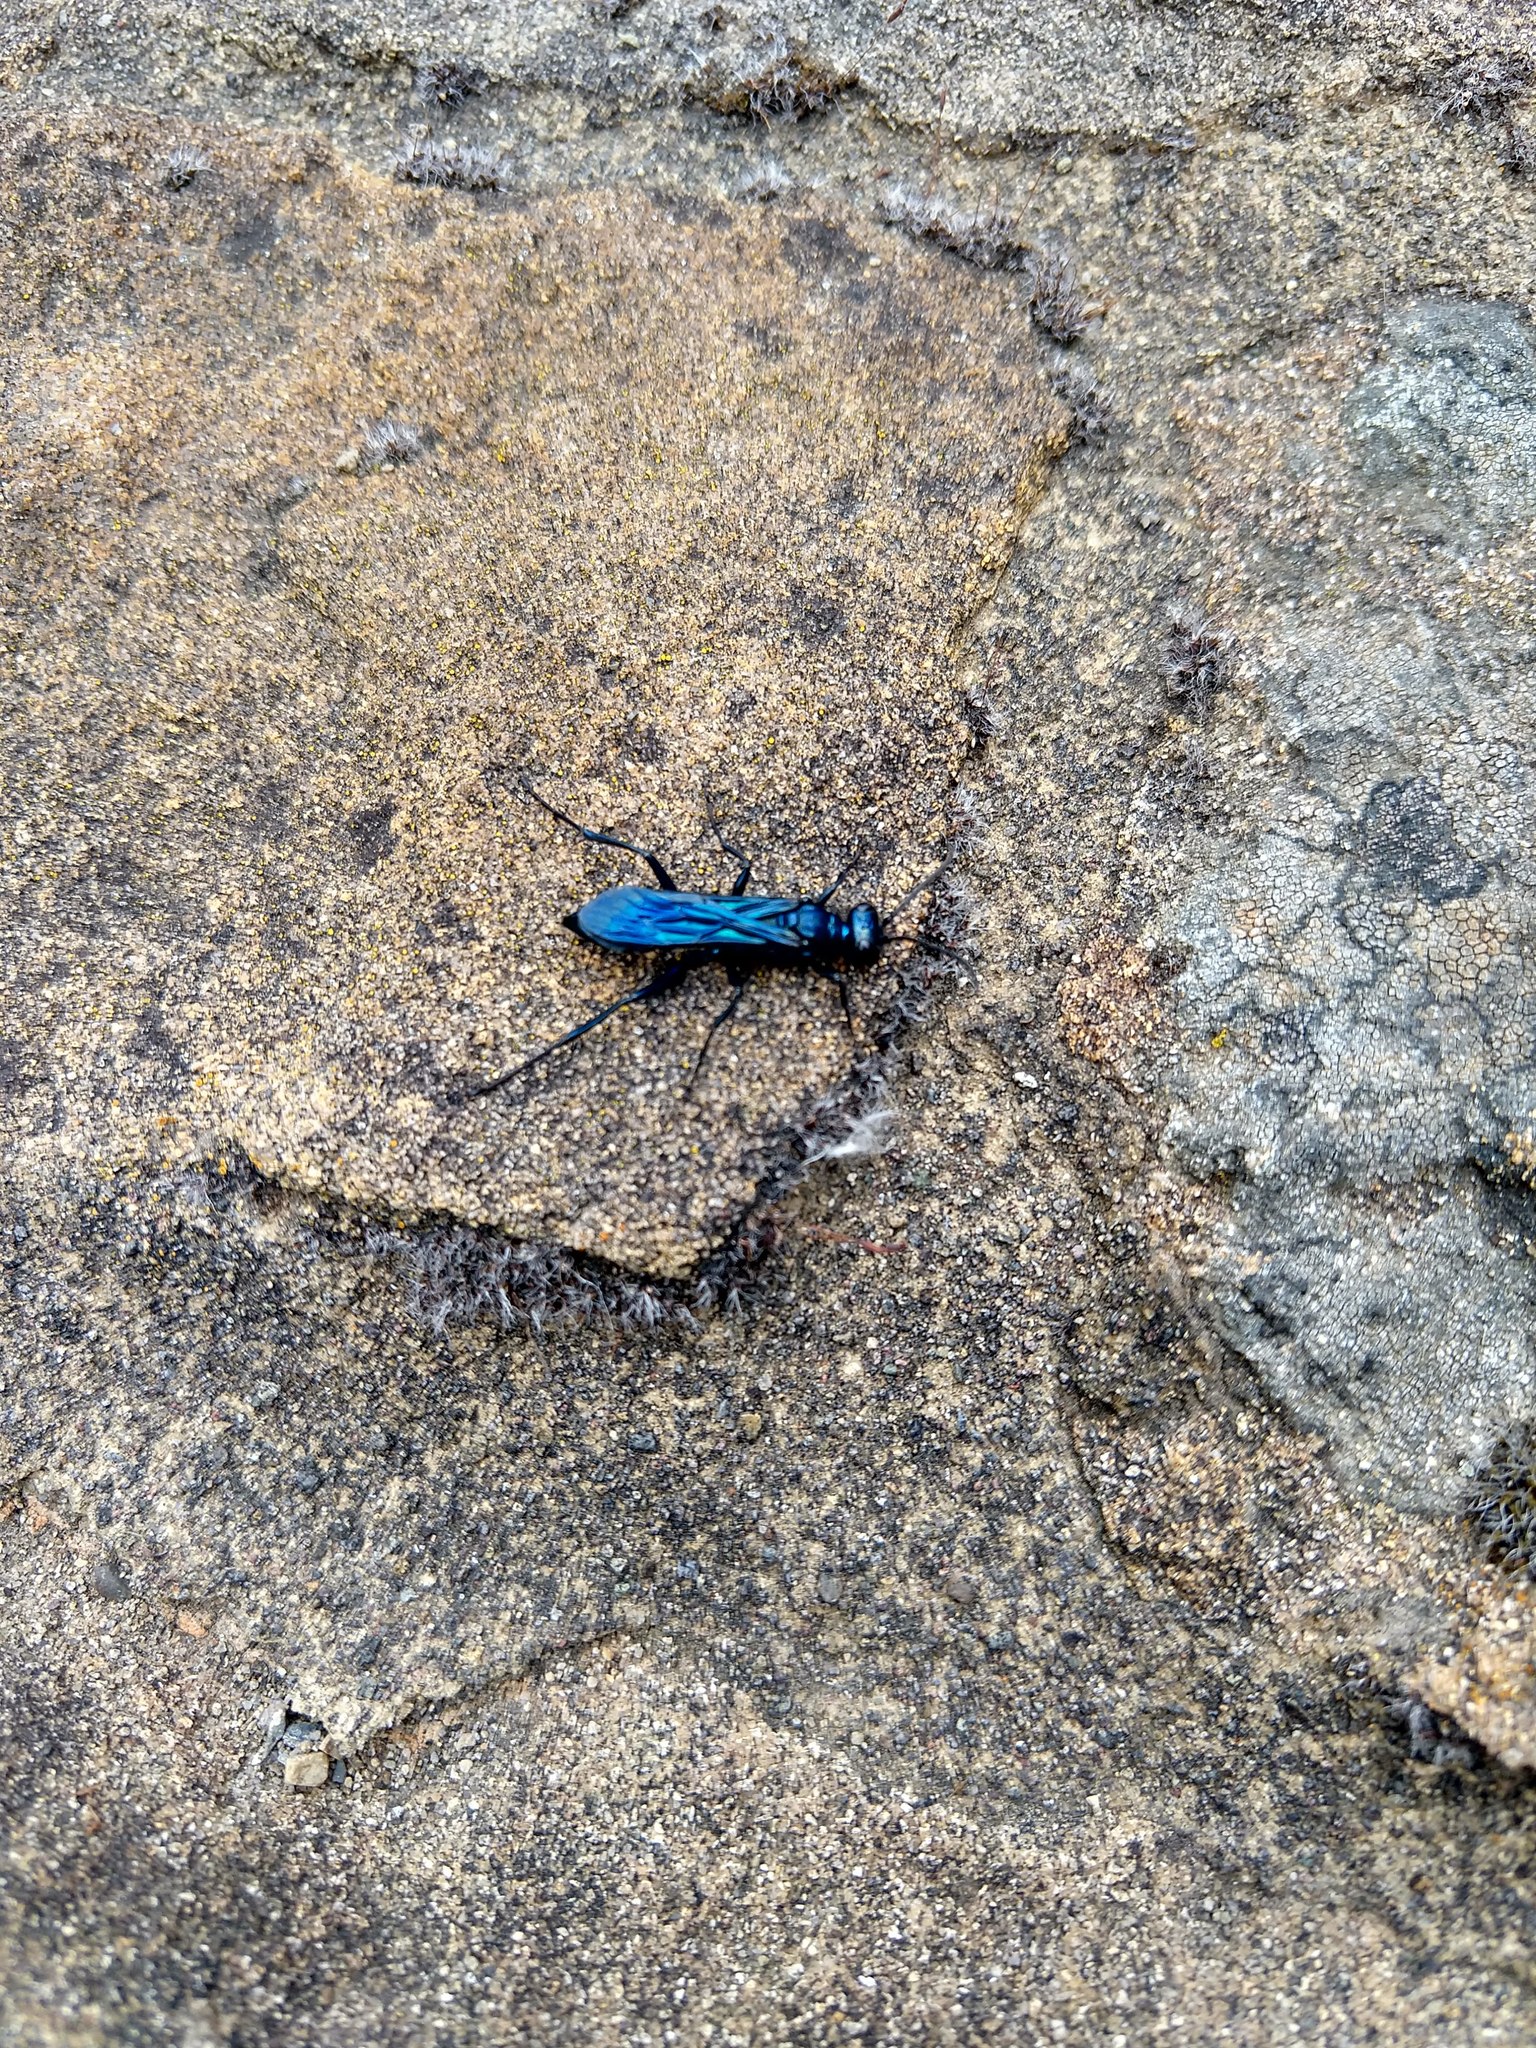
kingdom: Animalia
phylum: Arthropoda
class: Insecta
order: Hymenoptera
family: Sphecidae
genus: Chalybion
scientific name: Chalybion californicum
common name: Mud dauber
